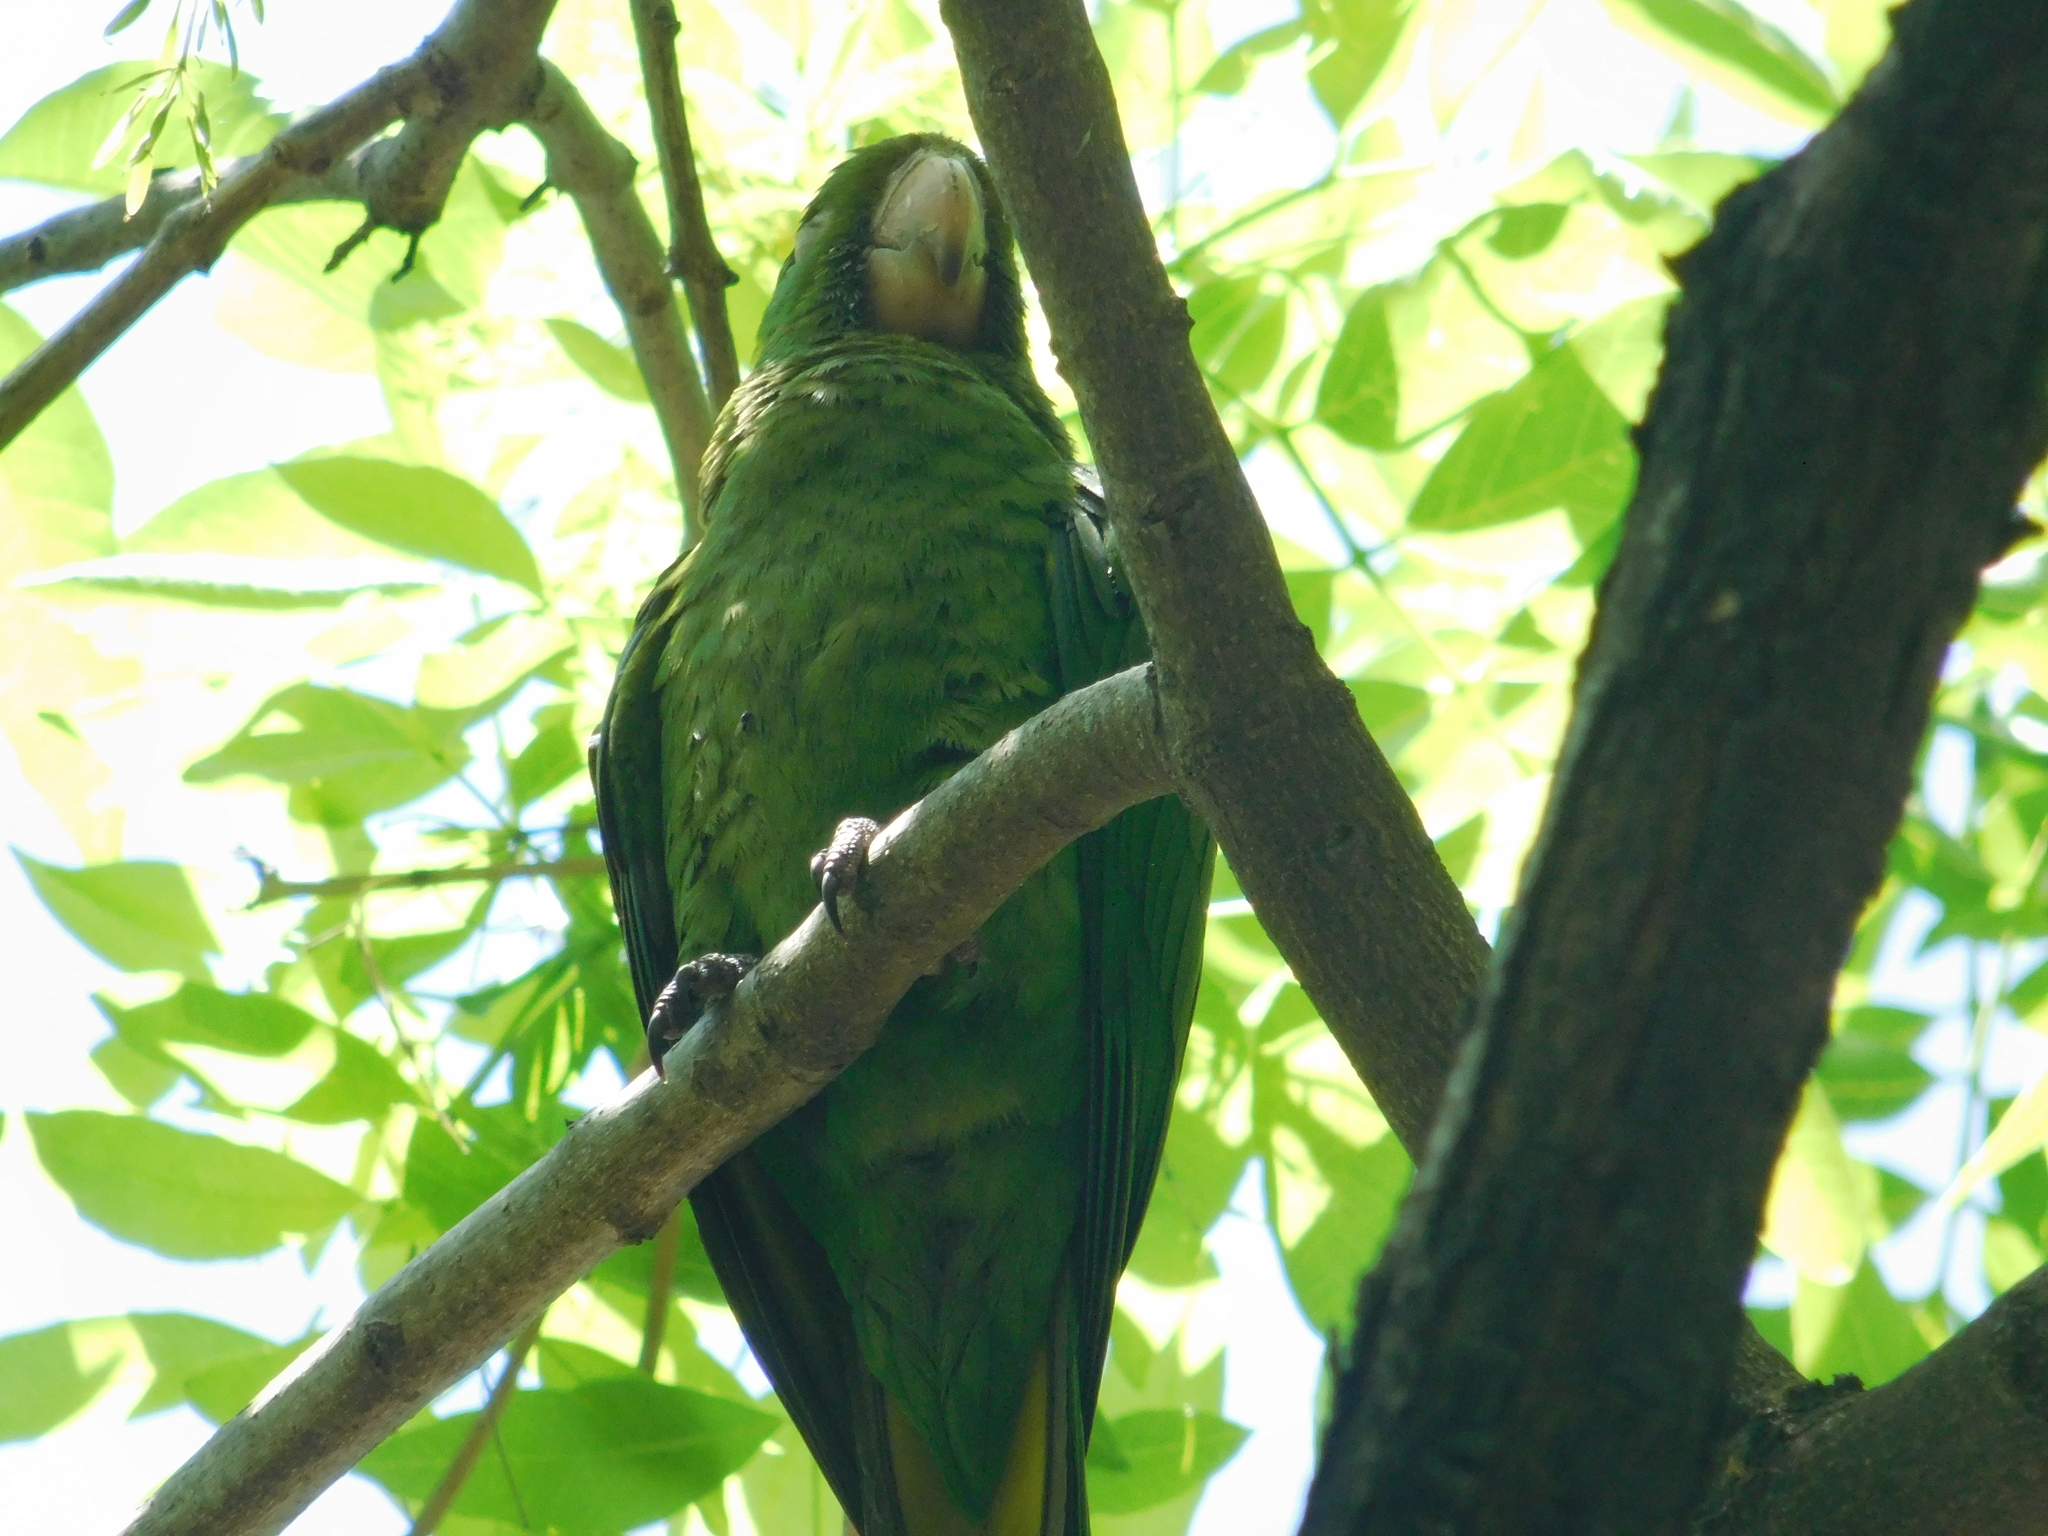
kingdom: Animalia
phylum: Chordata
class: Aves
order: Psittaciformes
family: Psittacidae
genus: Aratinga
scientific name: Aratinga leucophthalma
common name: White-eyed parakeet
